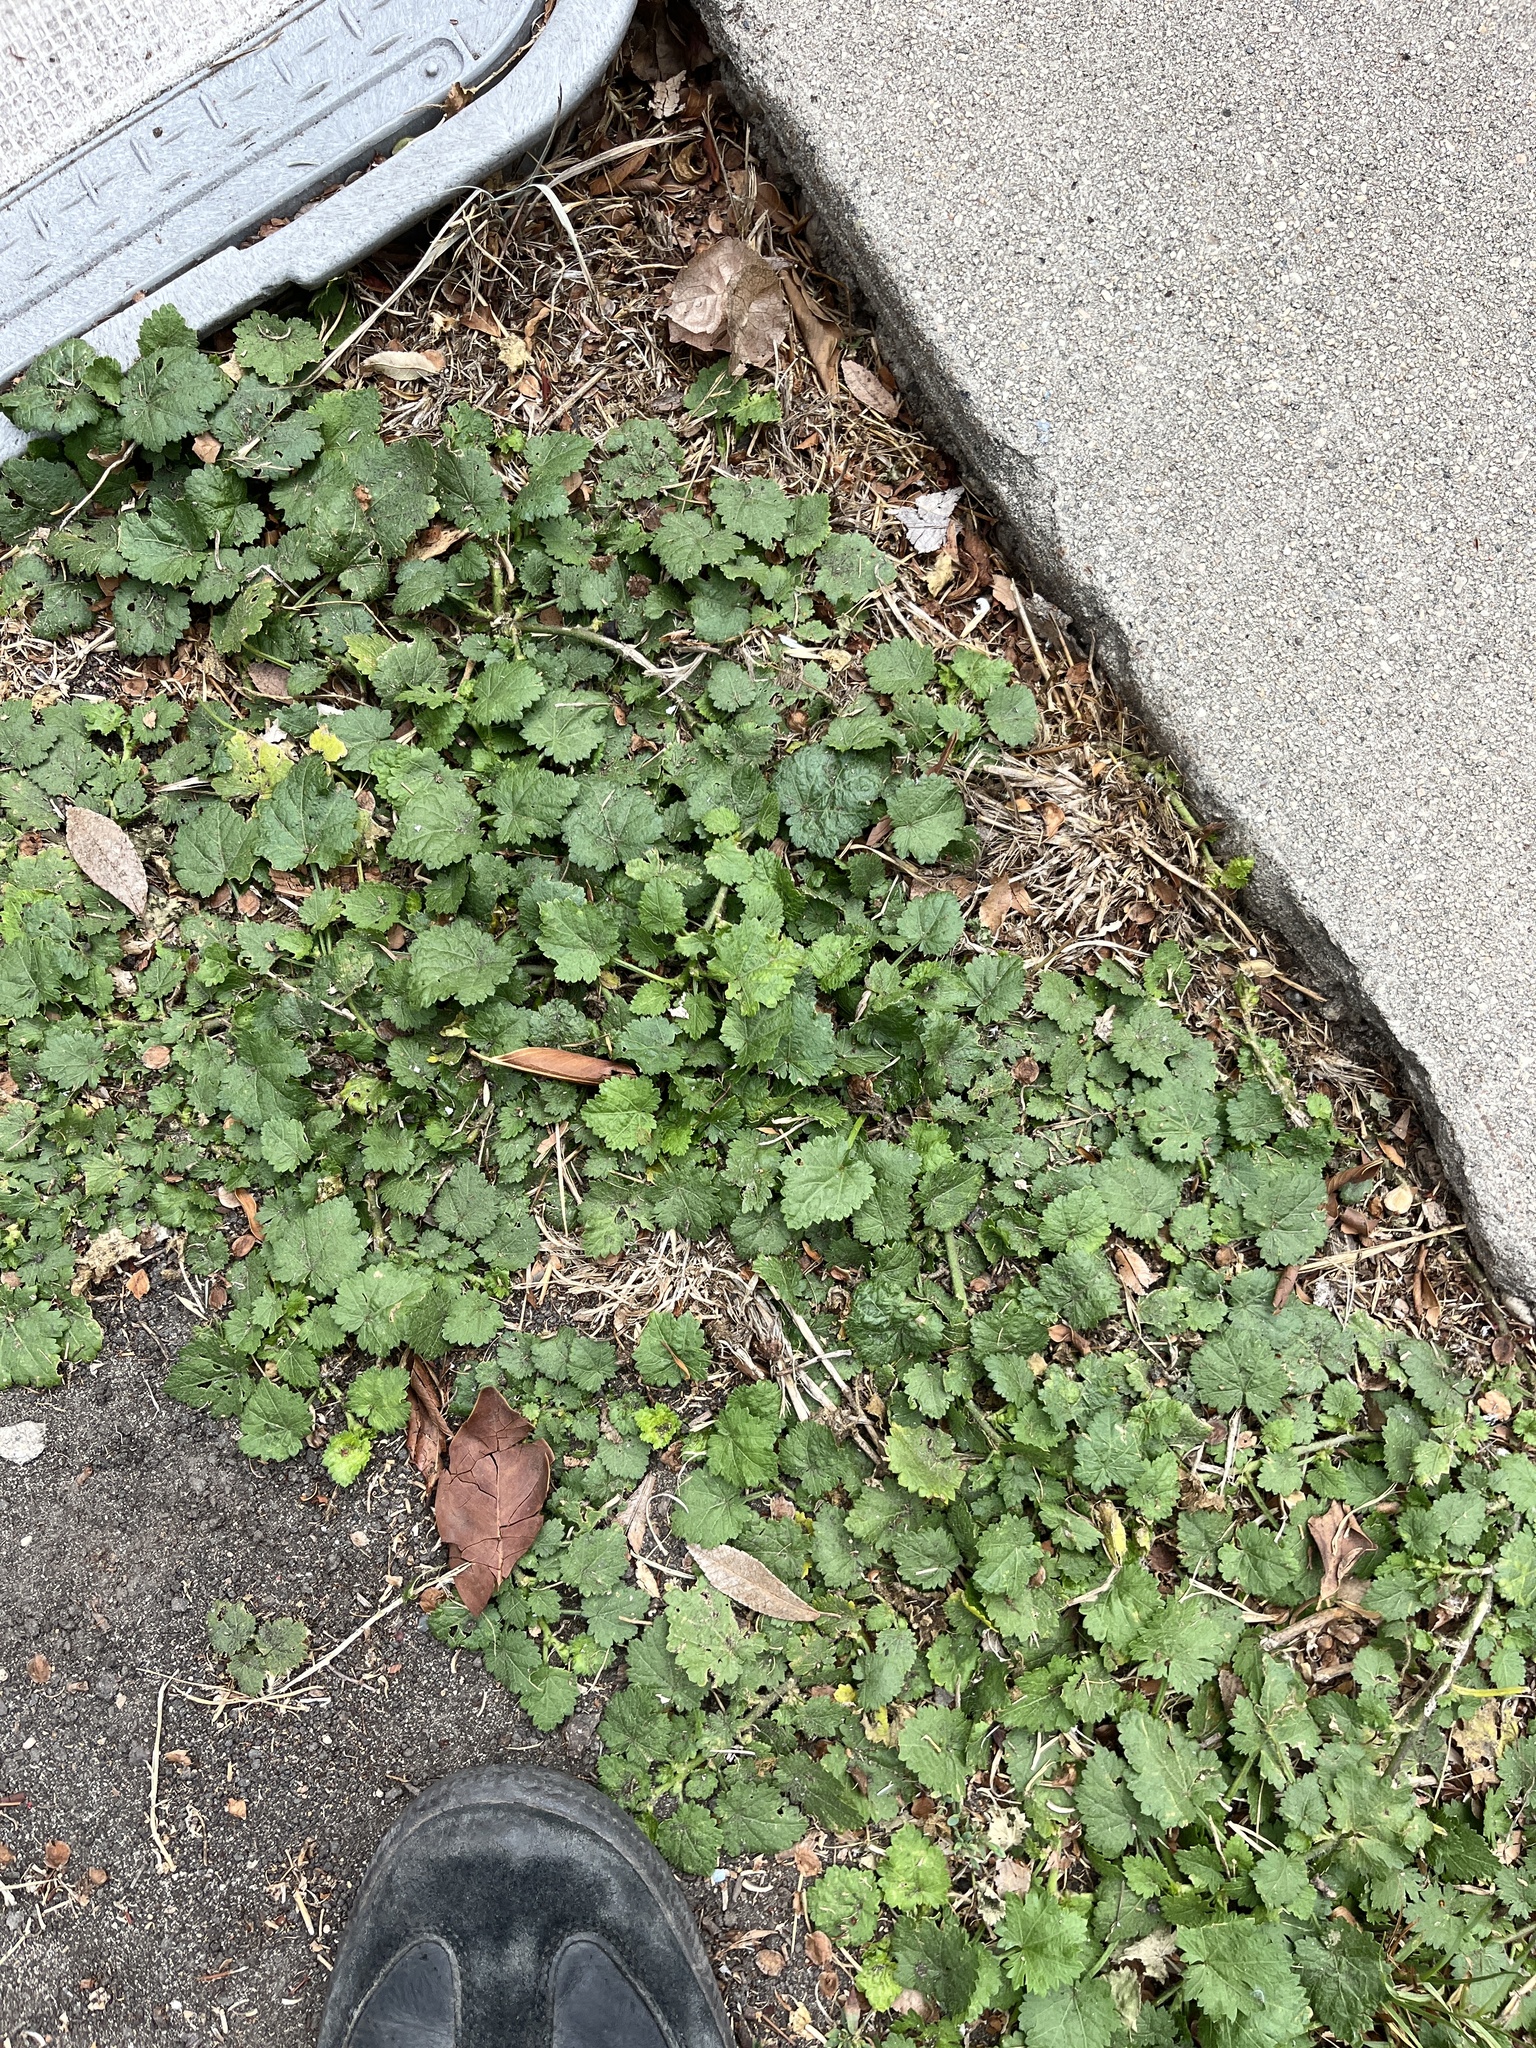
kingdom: Plantae
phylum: Tracheophyta
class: Magnoliopsida
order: Malvales
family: Malvaceae
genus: Modiola
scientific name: Modiola caroliniana
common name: Carolina bristlemallow
